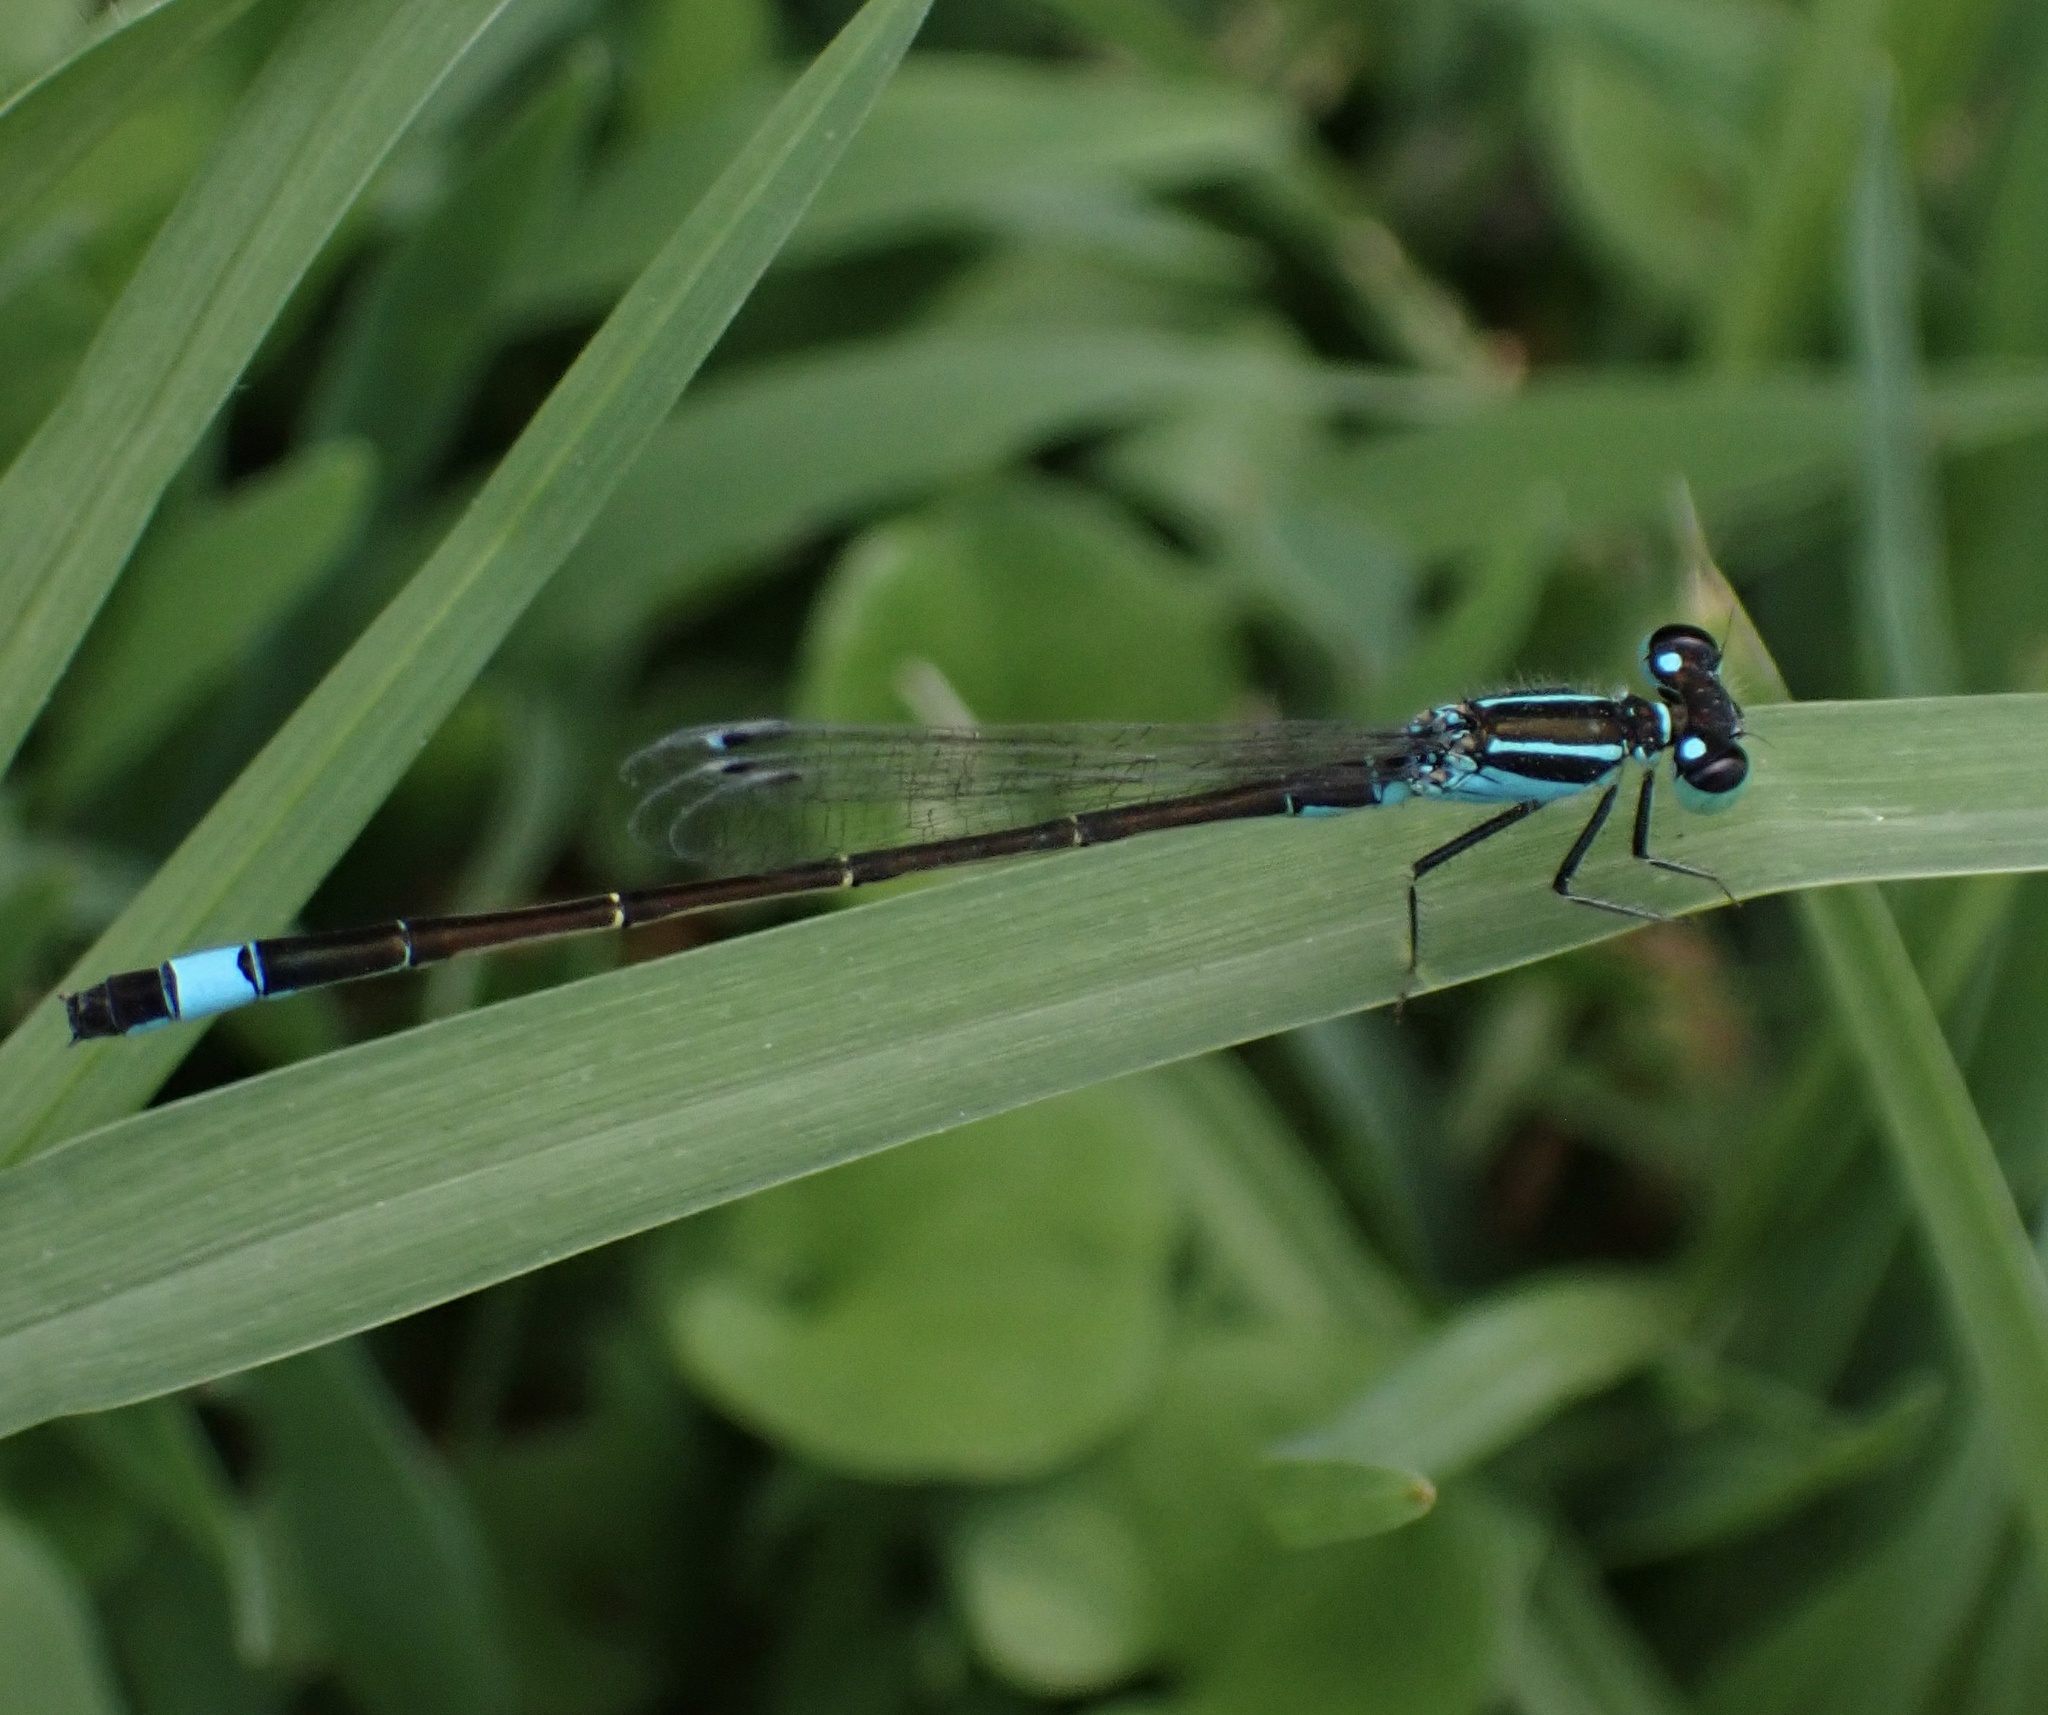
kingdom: Animalia
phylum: Arthropoda
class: Insecta
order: Odonata
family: Coenagrionidae
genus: Ischnura
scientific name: Ischnura elegans
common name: Blue-tailed damselfly
